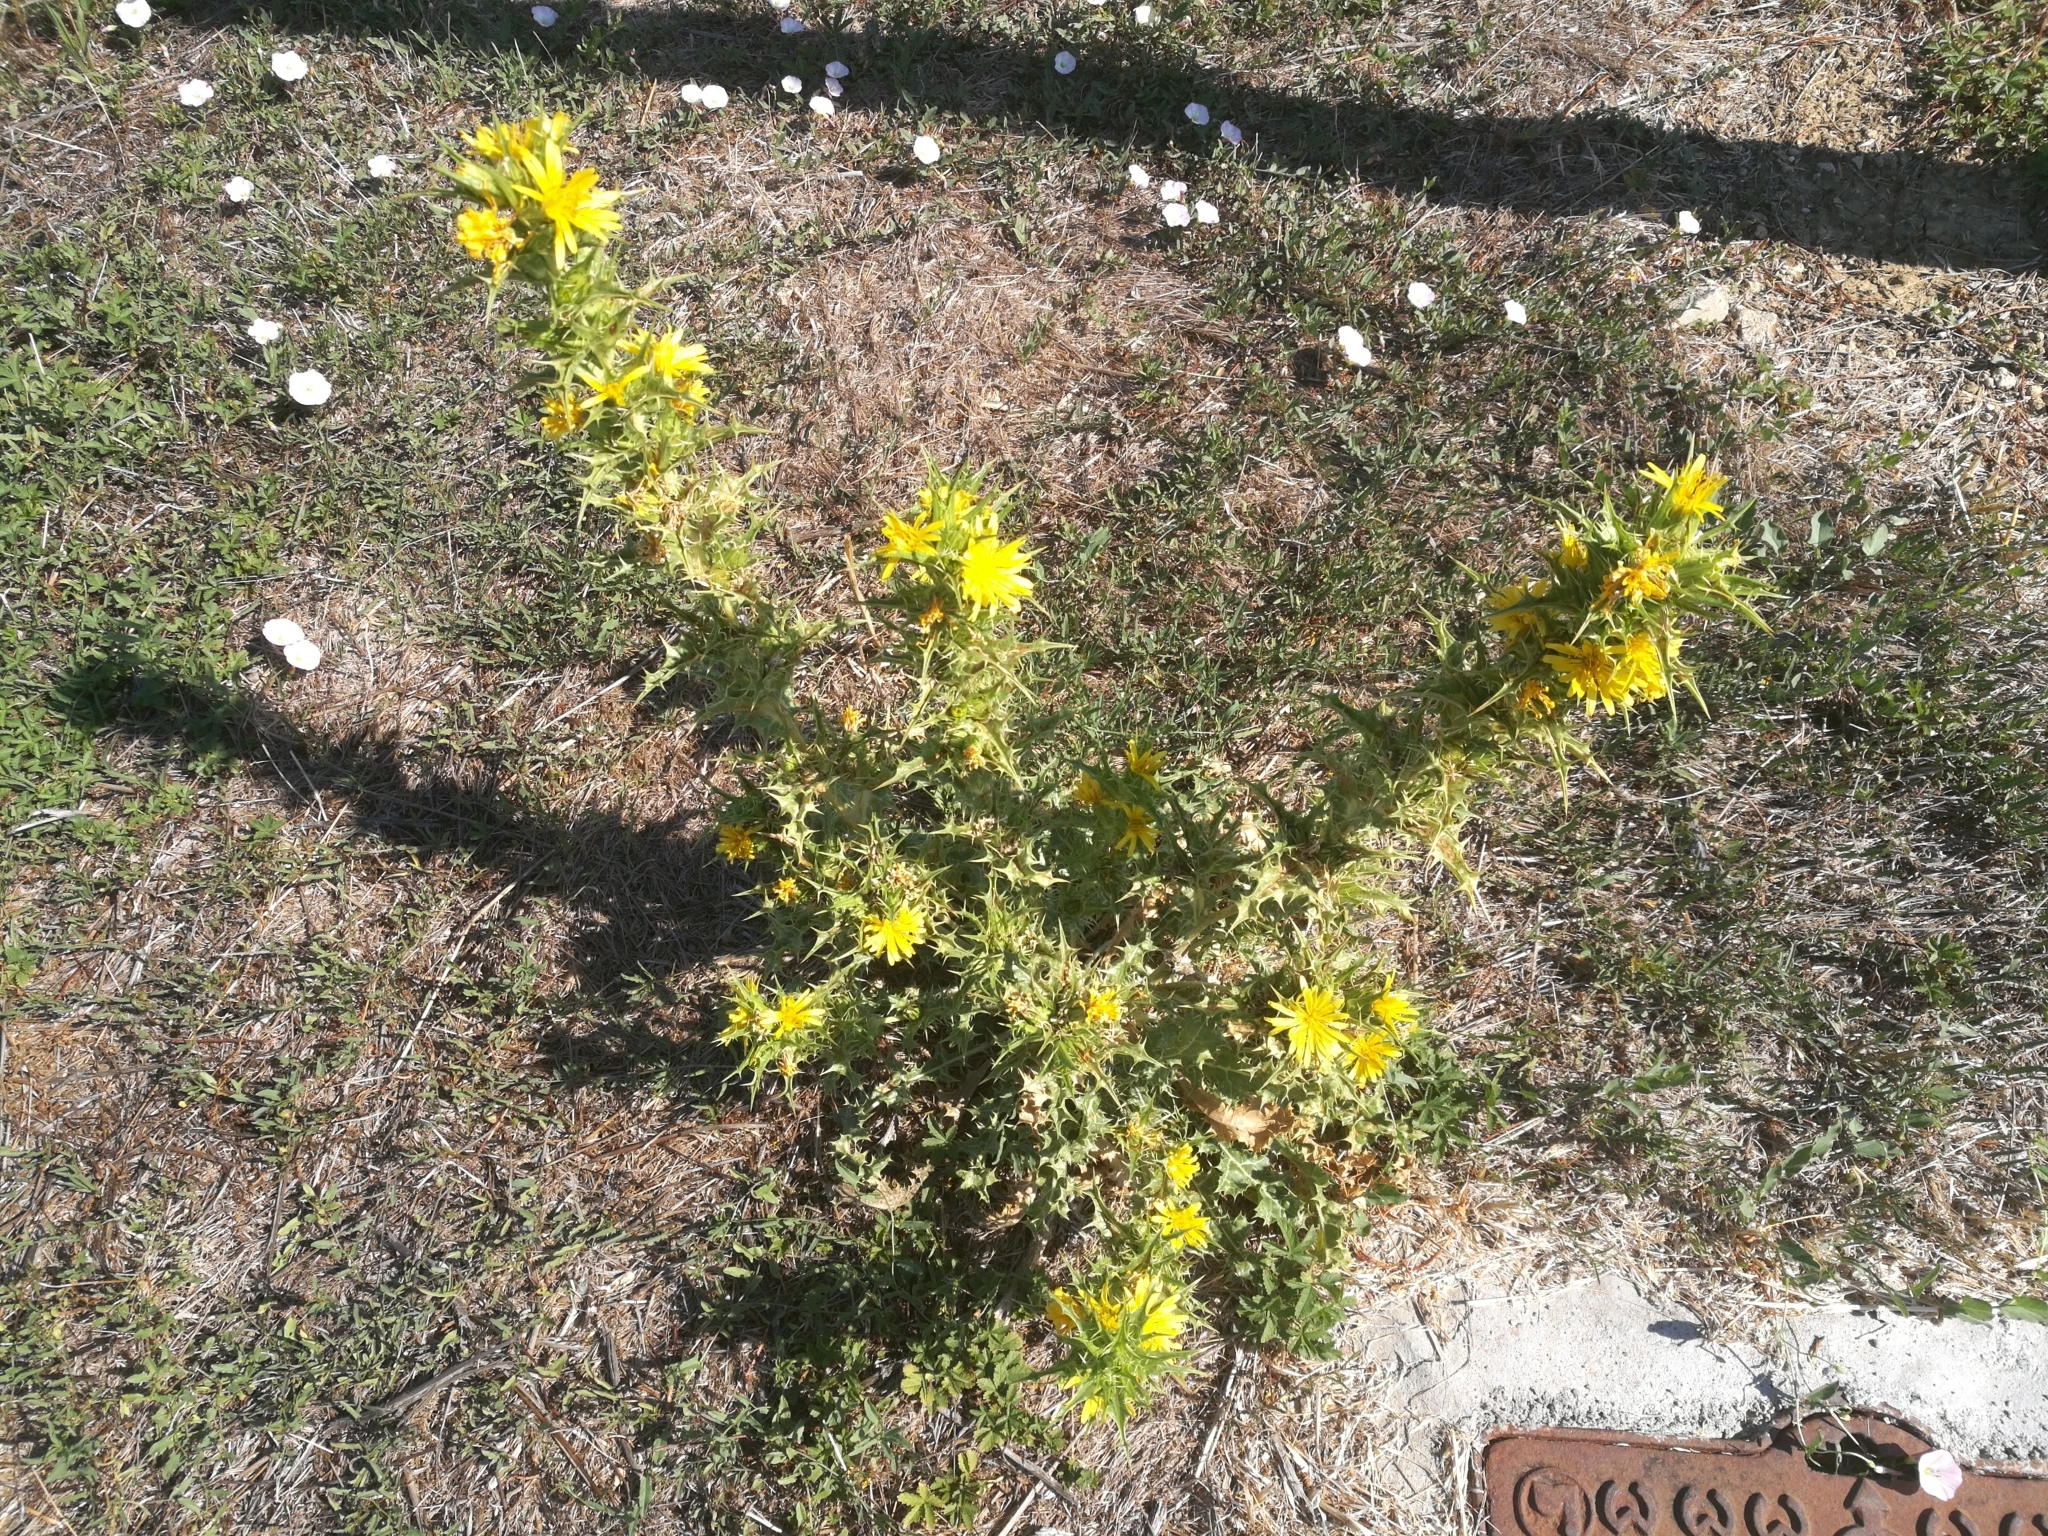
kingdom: Plantae
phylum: Tracheophyta
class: Magnoliopsida
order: Asterales
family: Asteraceae
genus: Scolymus
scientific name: Scolymus hispanicus
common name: Golden thistle
